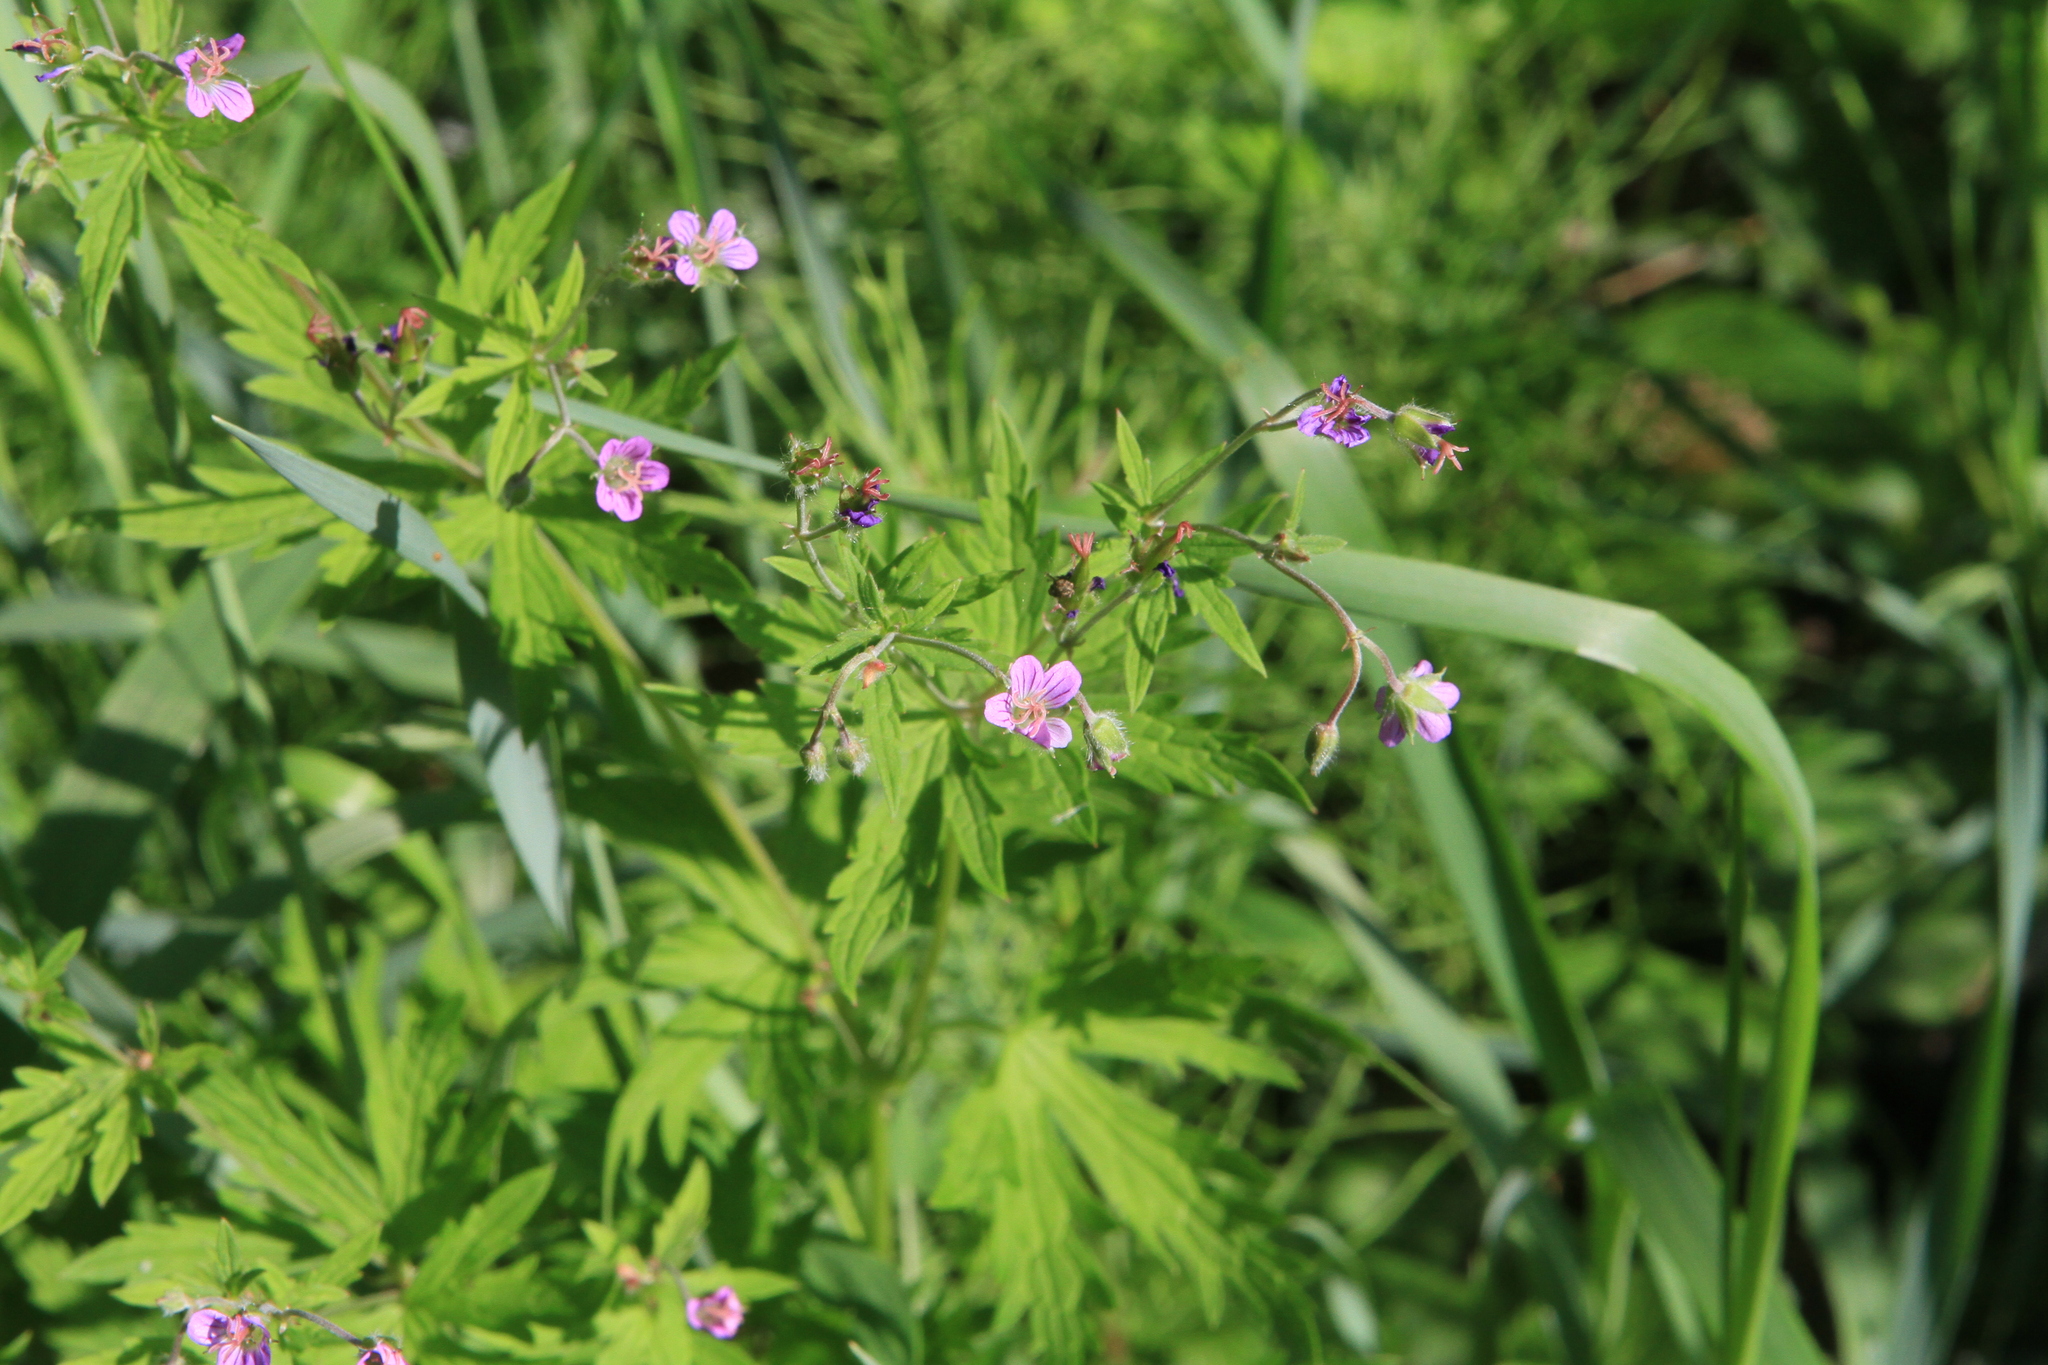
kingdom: Plantae
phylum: Tracheophyta
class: Magnoliopsida
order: Geraniales
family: Geraniaceae
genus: Geranium
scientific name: Geranium pseudosibiricum
